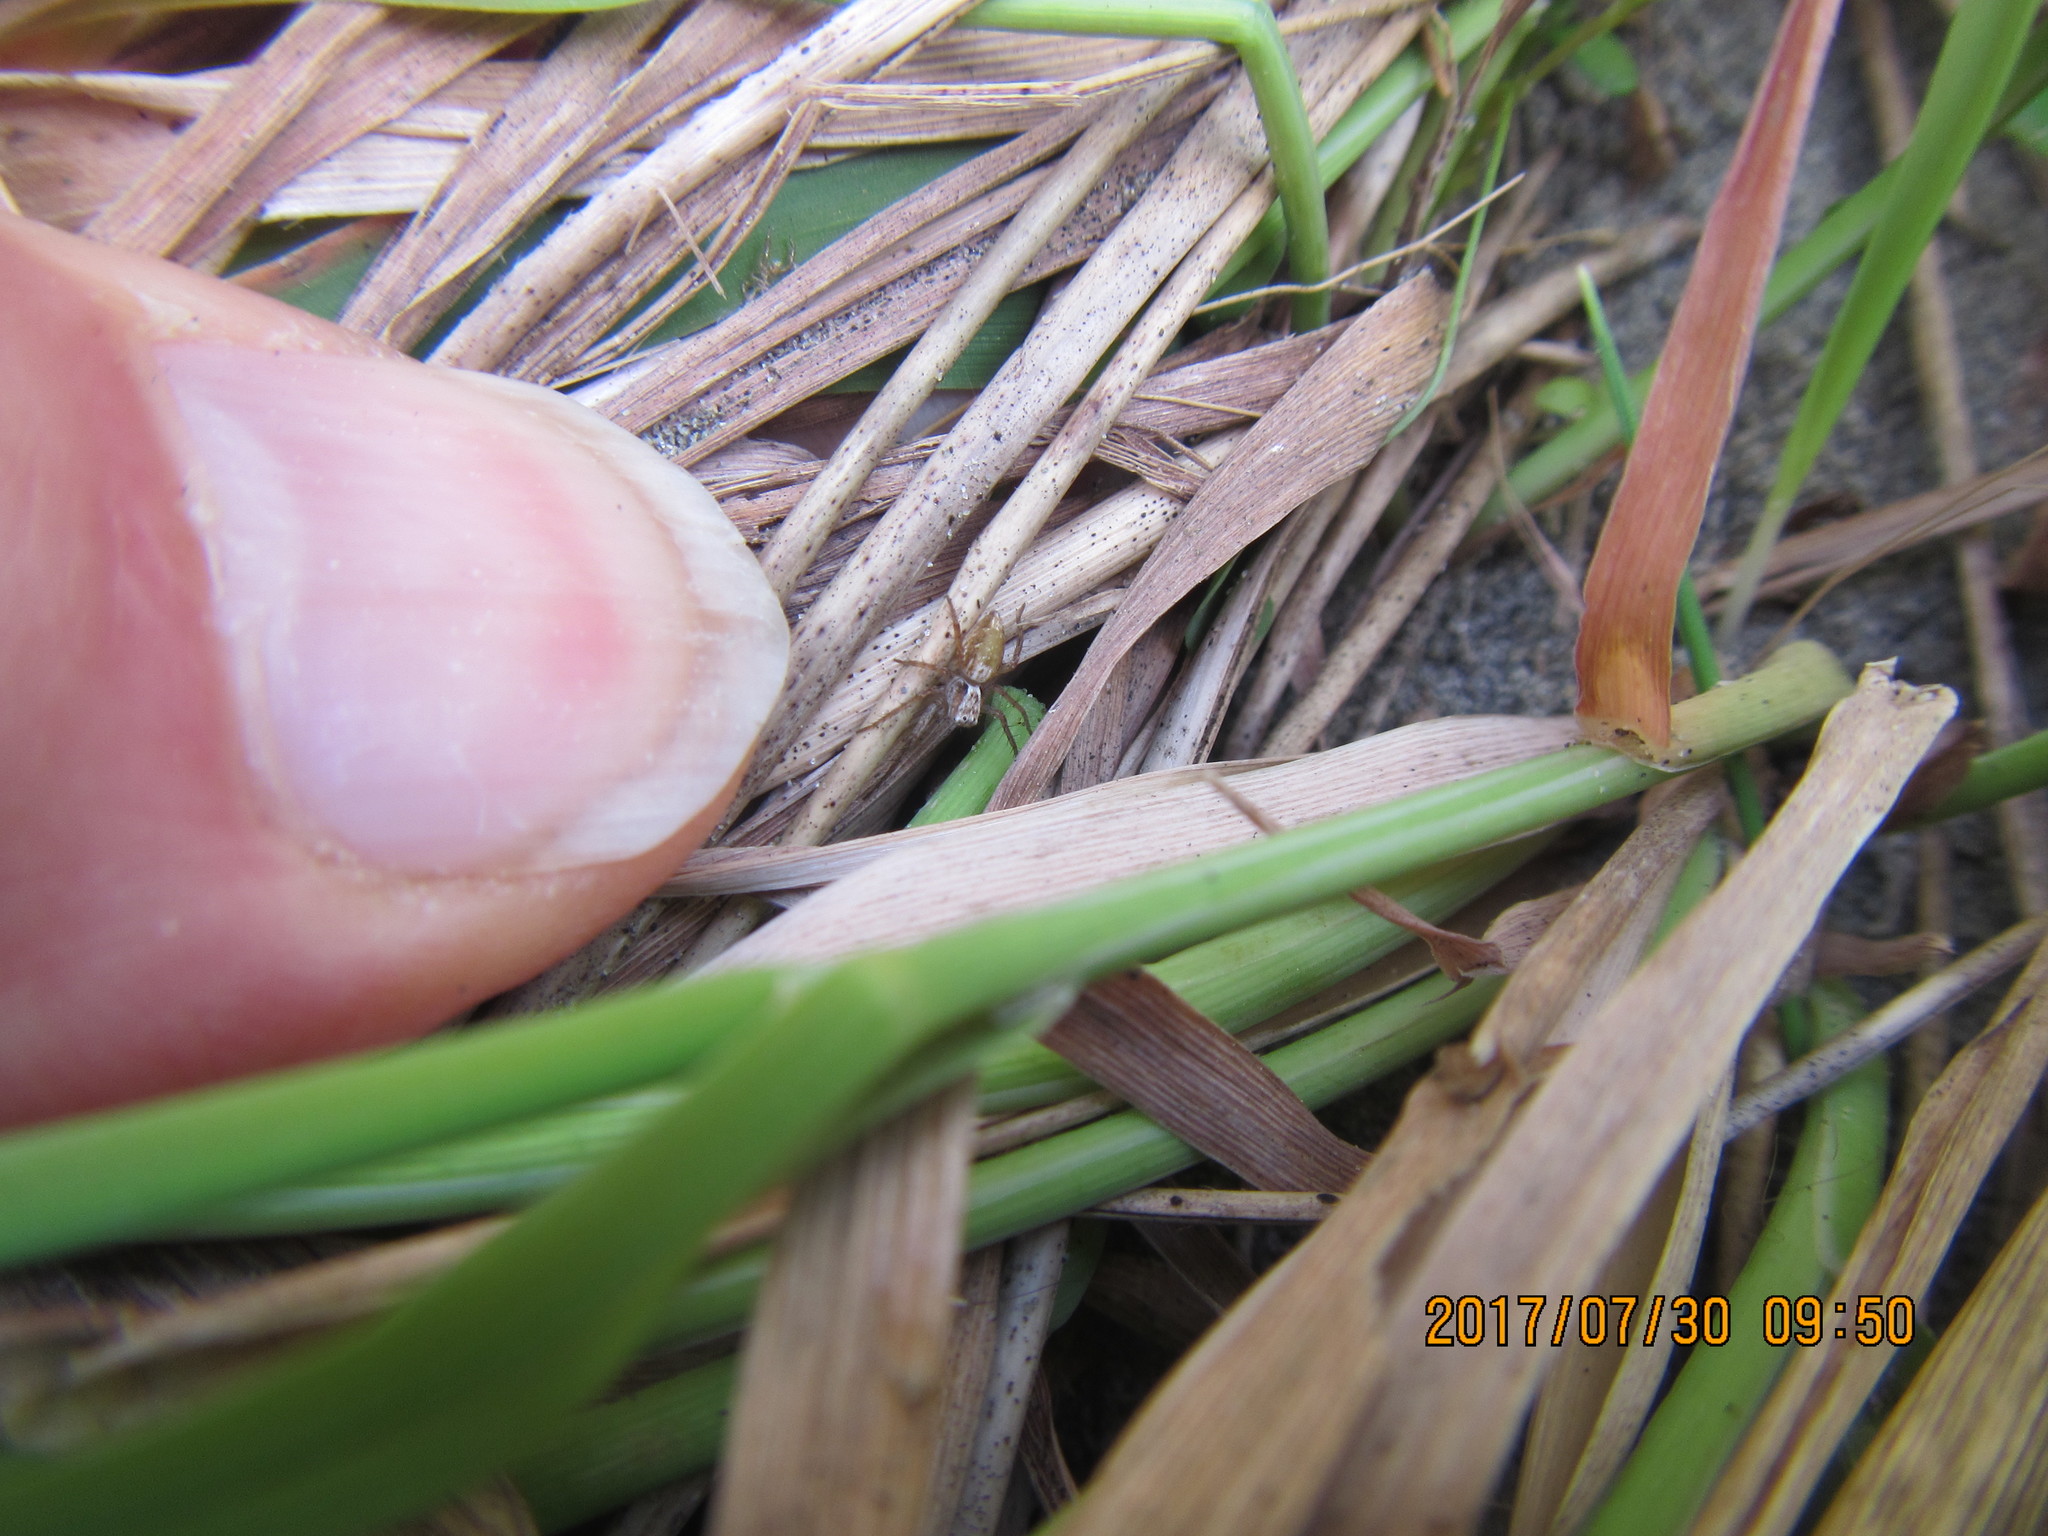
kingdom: Animalia
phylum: Arthropoda
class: Arachnida
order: Araneae
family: Oxyopidae
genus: Oxyopes
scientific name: Oxyopes gracilipes
